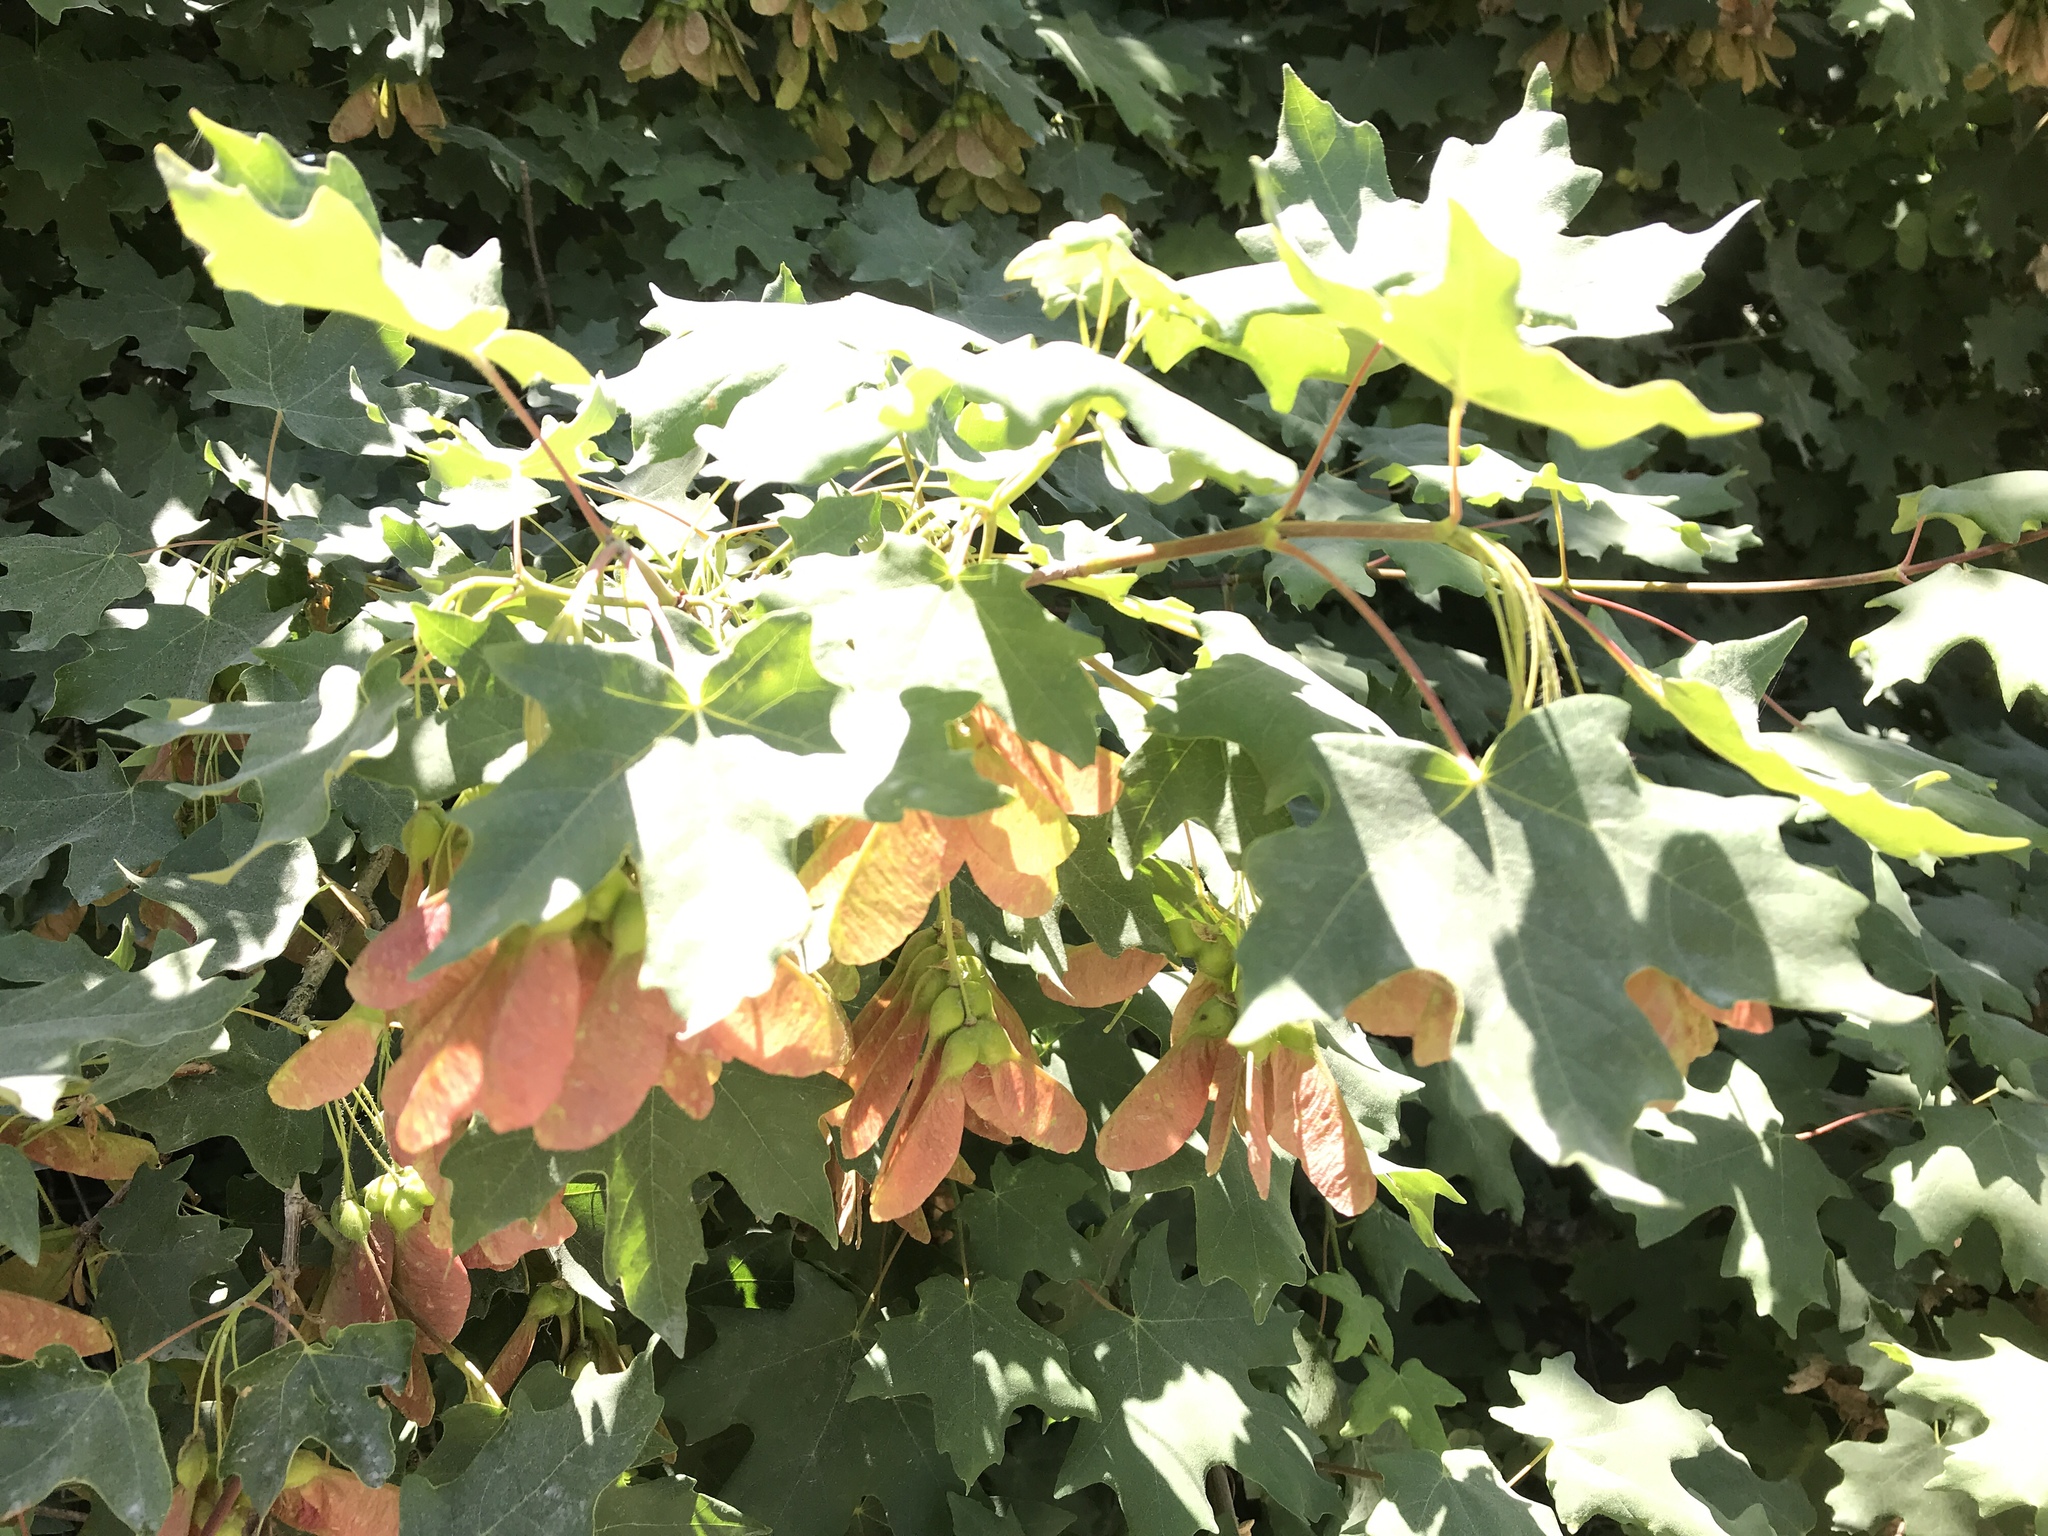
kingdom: Plantae
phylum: Tracheophyta
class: Magnoliopsida
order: Sapindales
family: Sapindaceae
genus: Acer
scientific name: Acer grandidentatum
